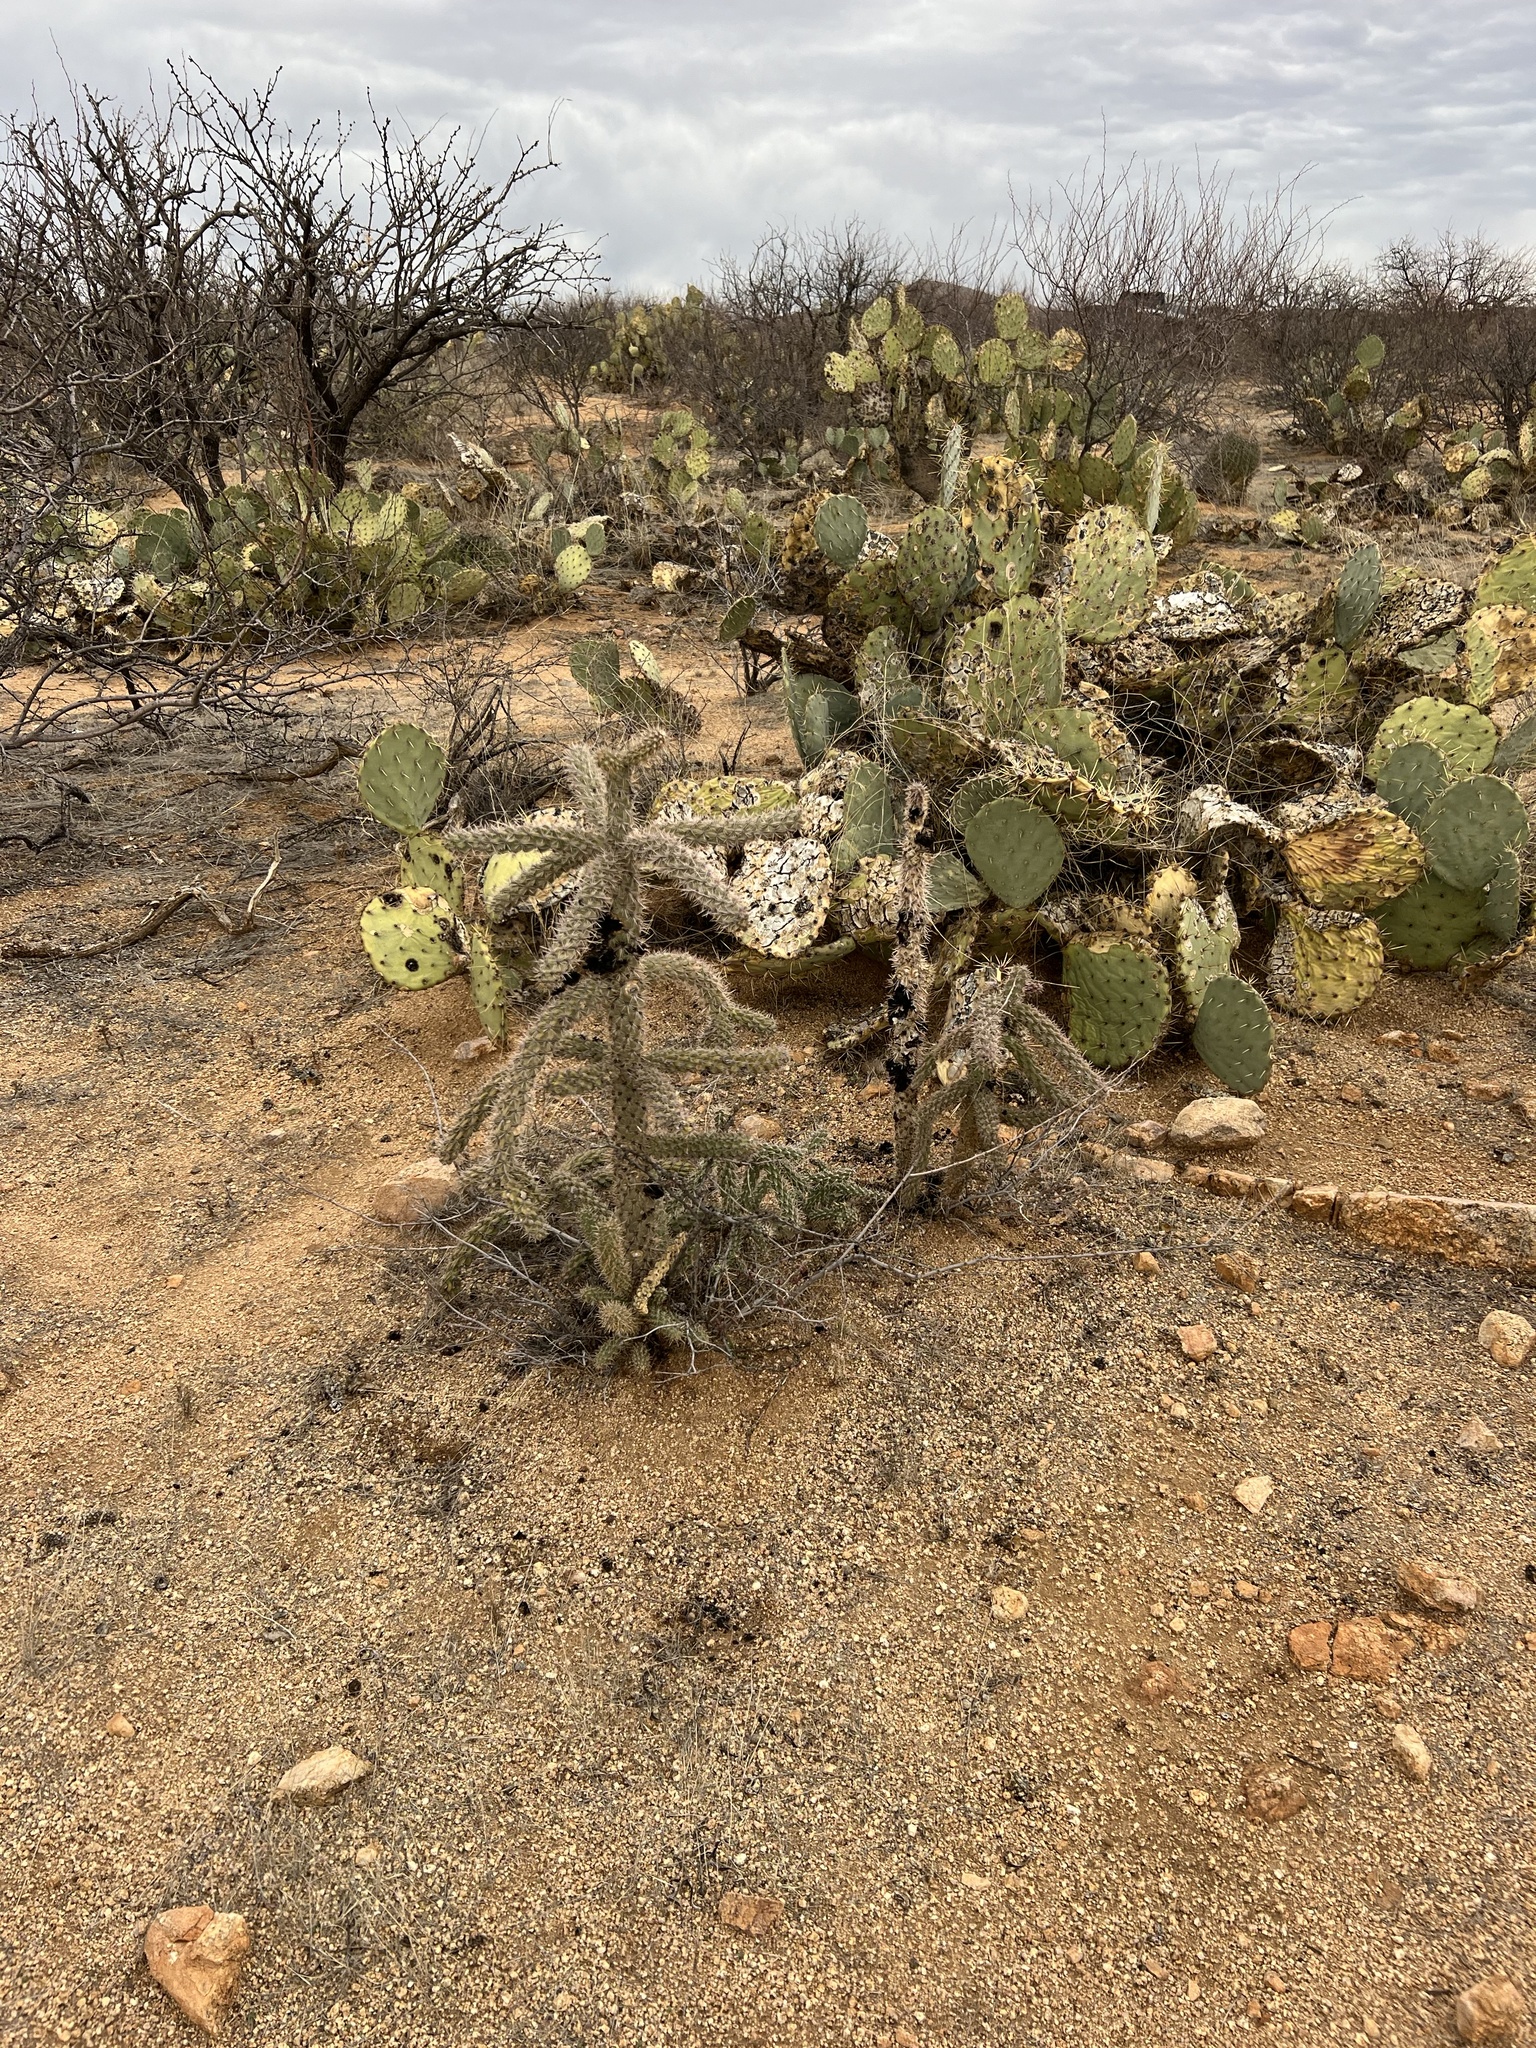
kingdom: Plantae
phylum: Tracheophyta
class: Magnoliopsida
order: Caryophyllales
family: Cactaceae
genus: Cylindropuntia
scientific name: Cylindropuntia imbricata
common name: Candelabrum cactus
